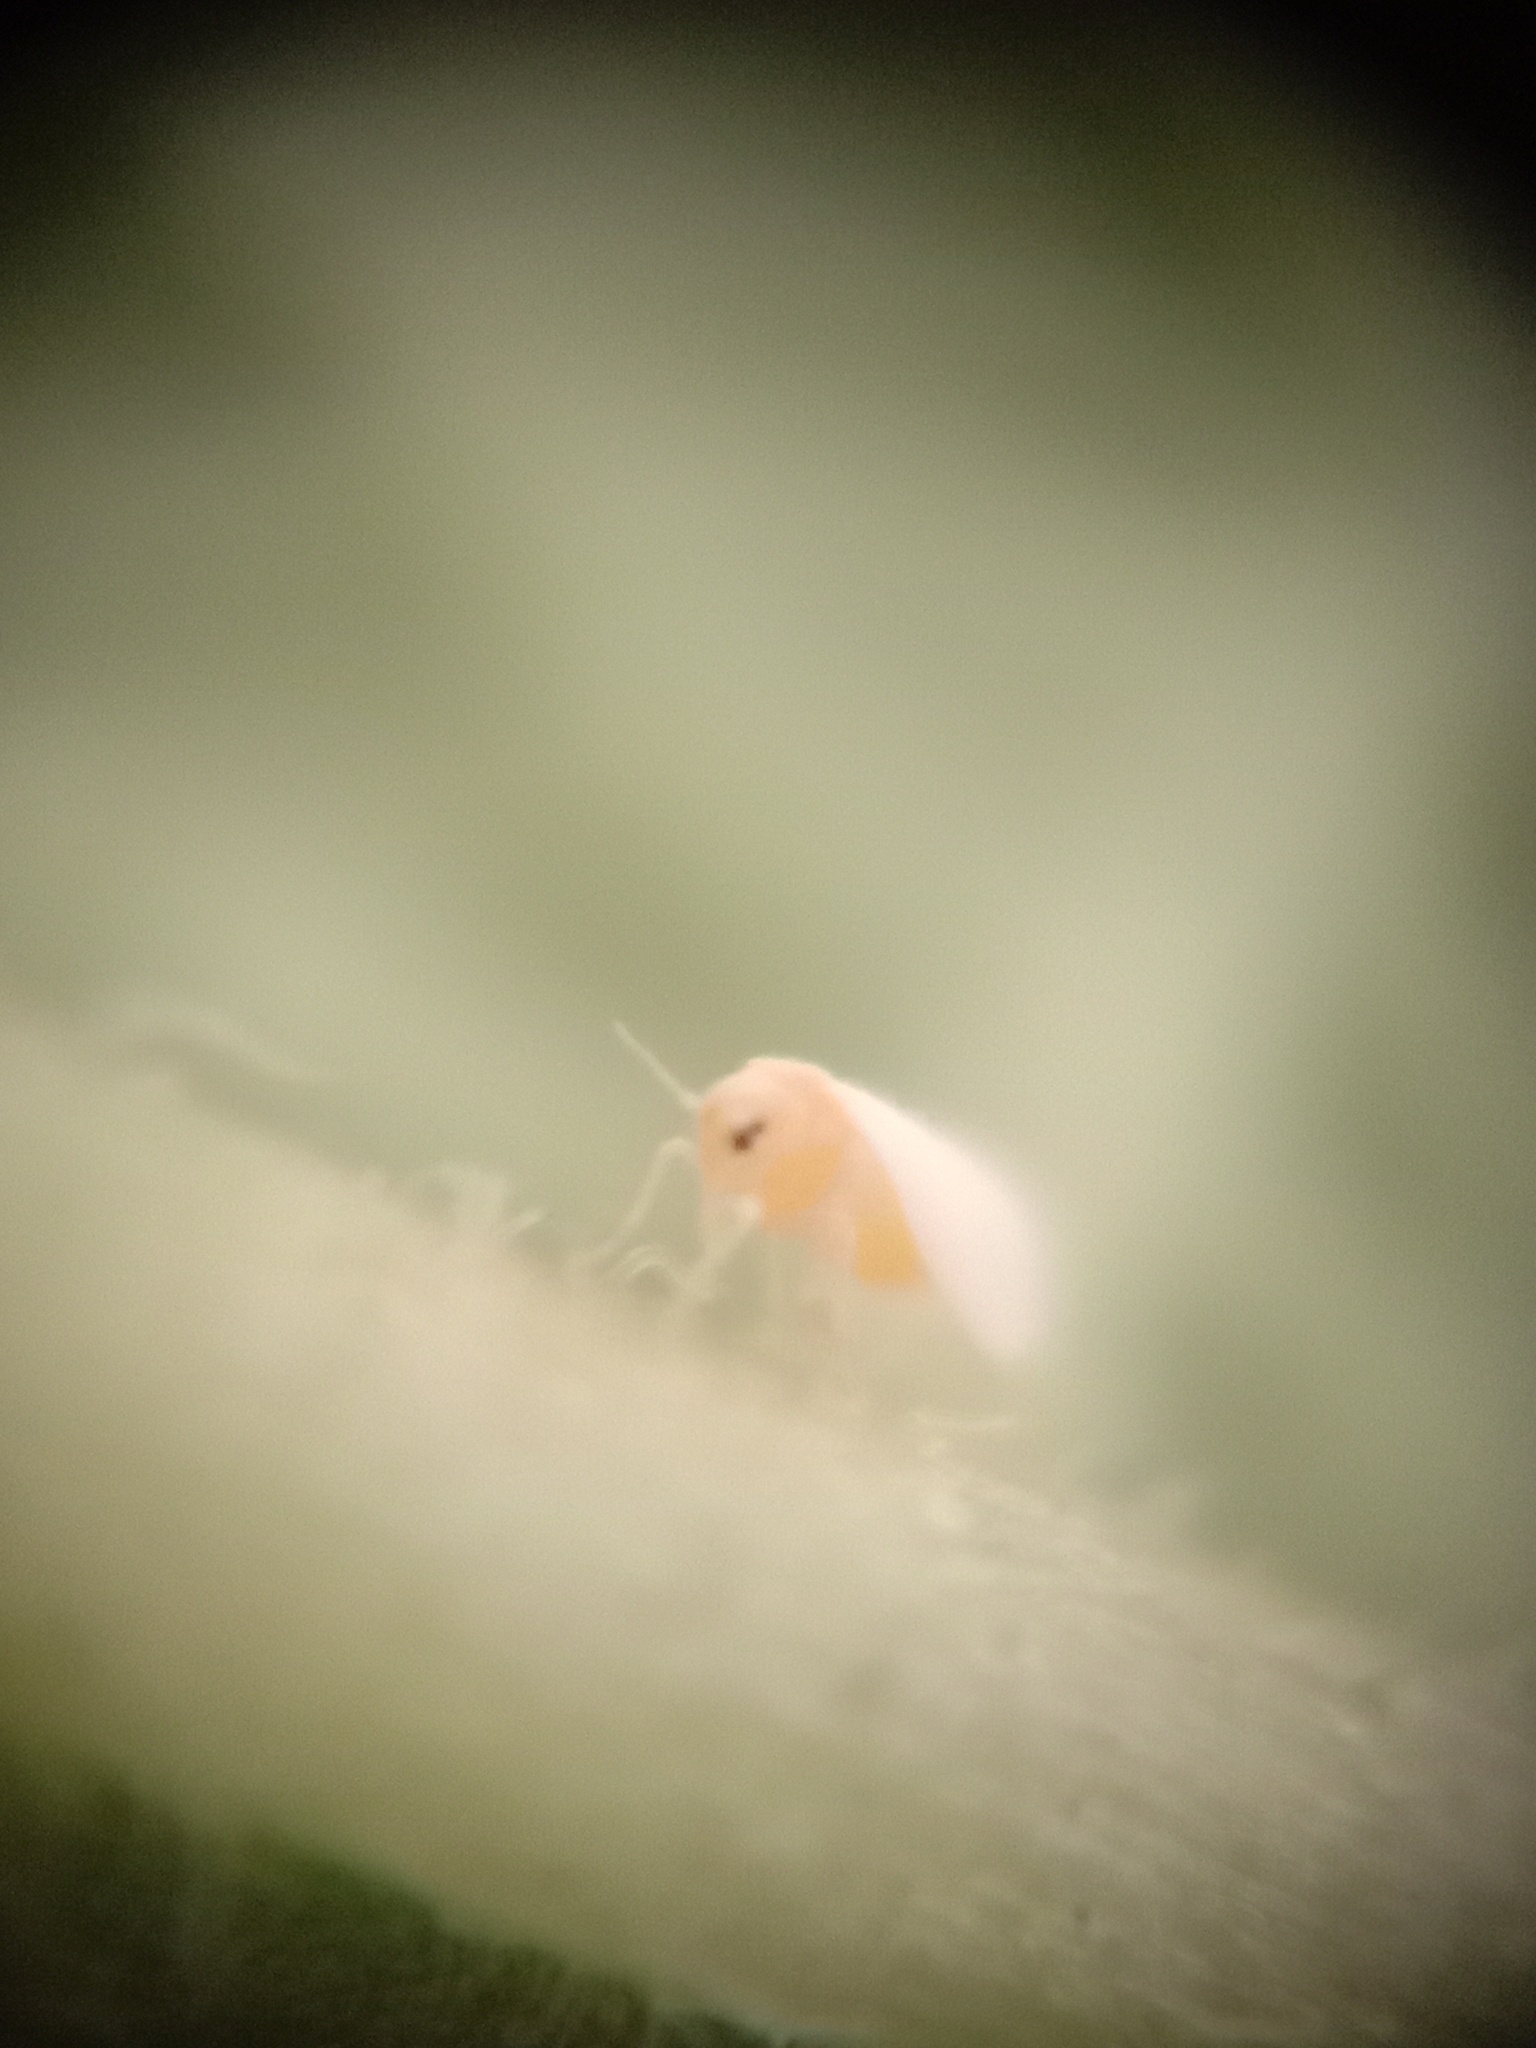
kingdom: Animalia
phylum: Arthropoda
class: Insecta
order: Hemiptera
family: Aleyrodidae
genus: Bemisia
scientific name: Bemisia tabaci
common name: Sweetpotato whitefly
